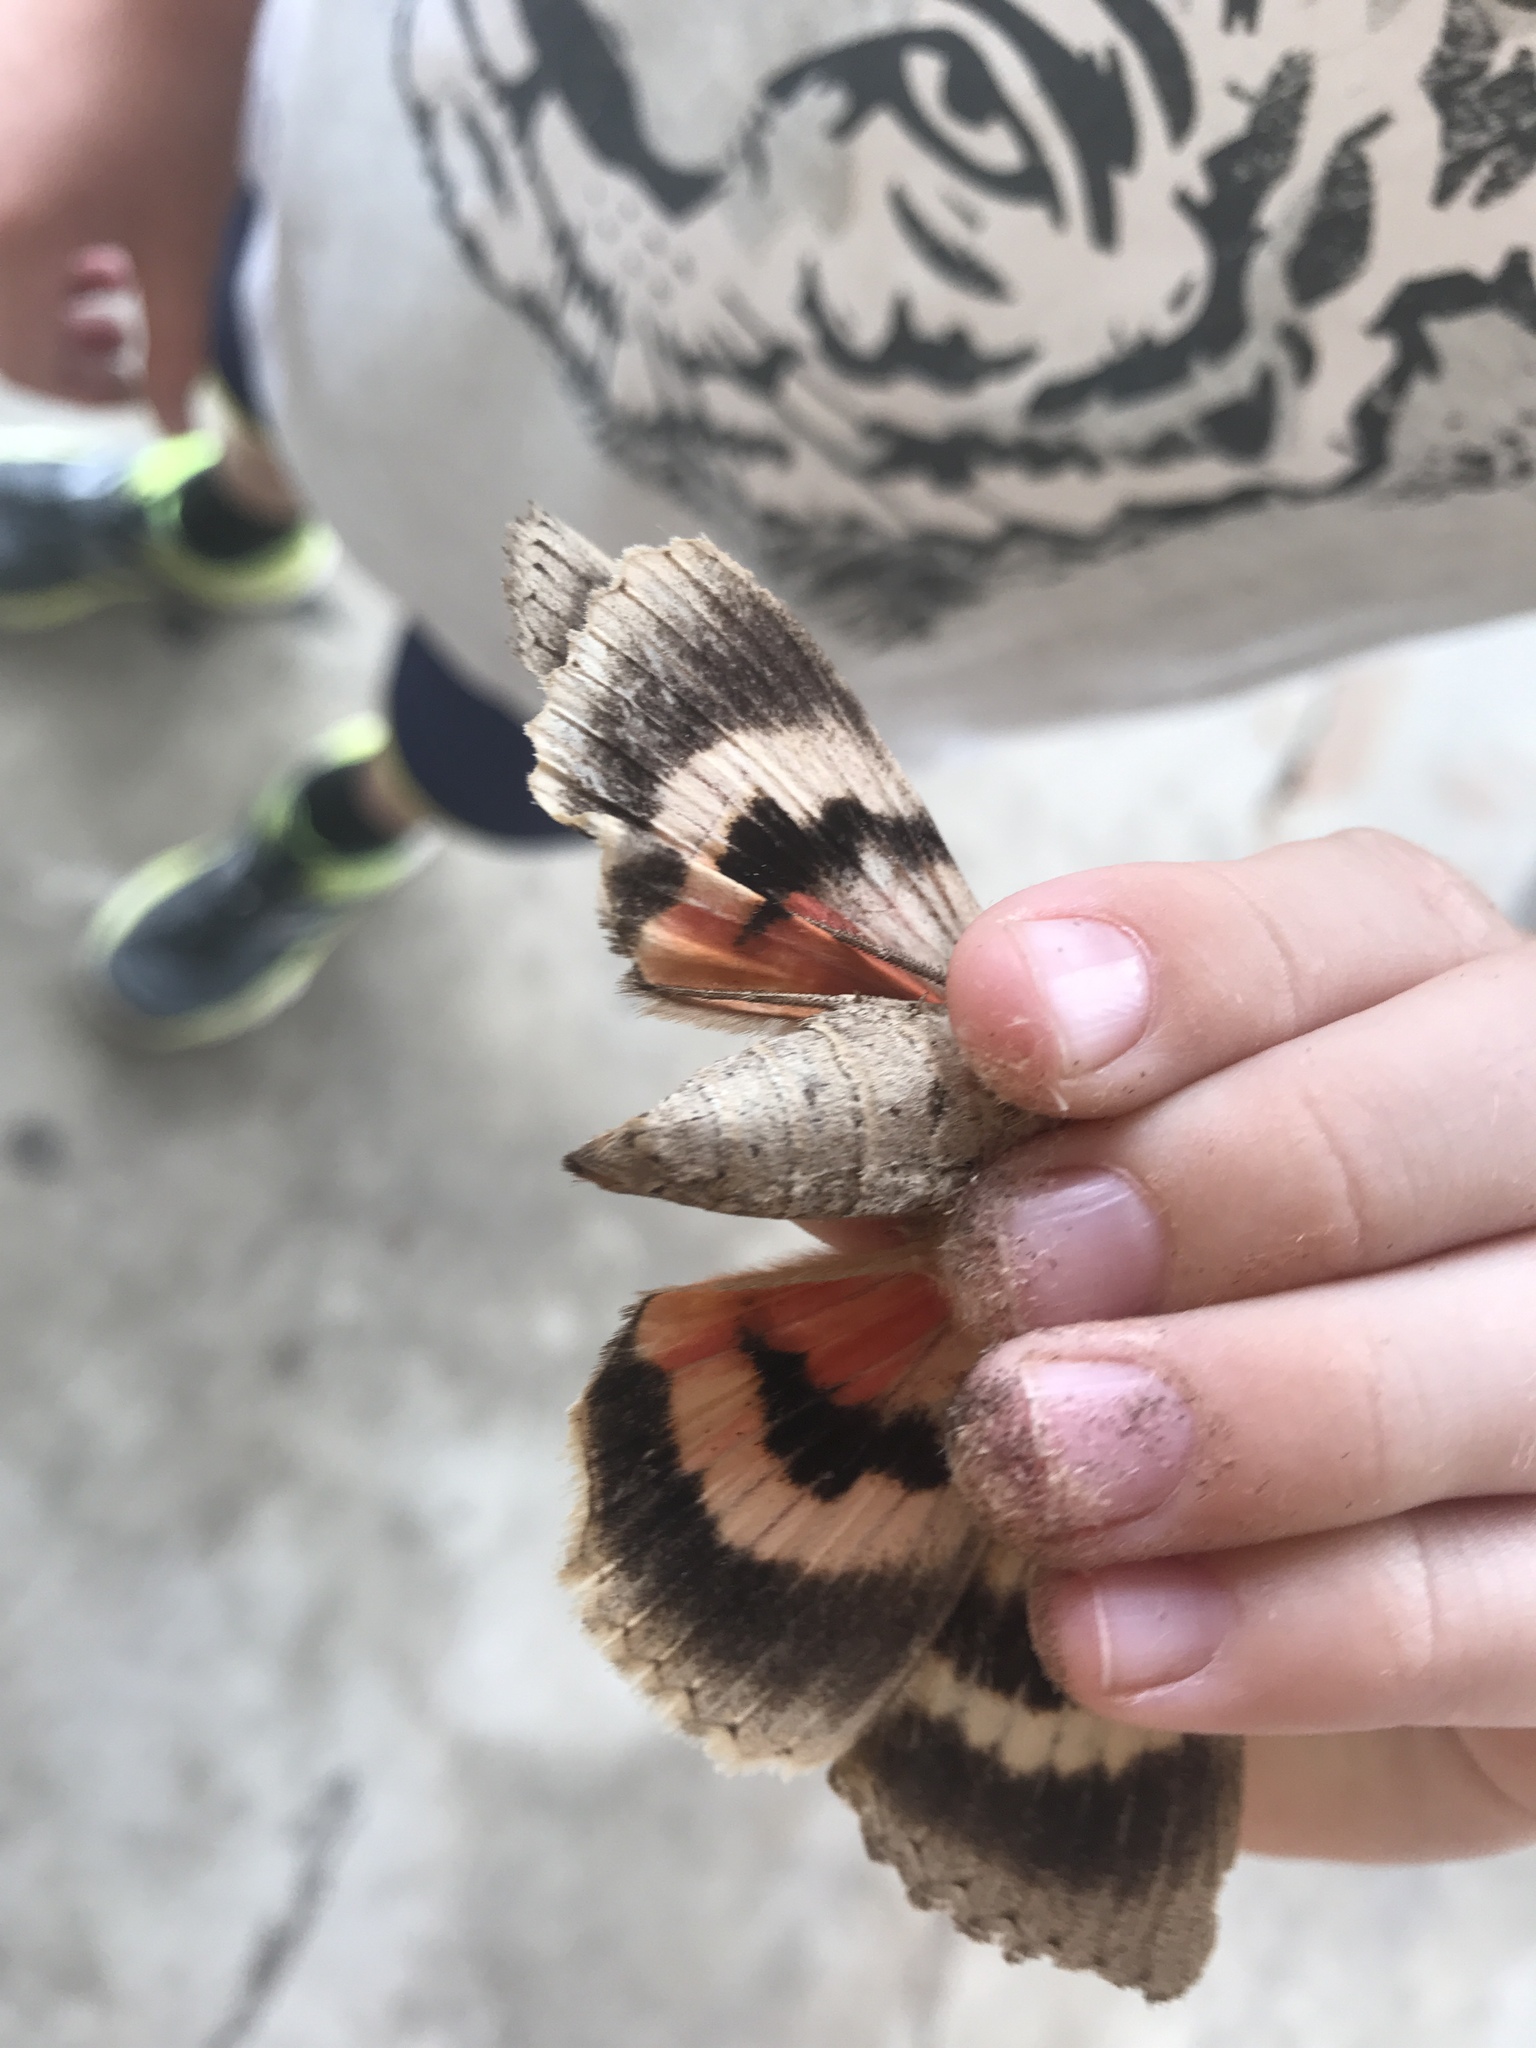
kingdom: Animalia
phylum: Arthropoda
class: Insecta
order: Lepidoptera
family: Erebidae
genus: Catocala
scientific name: Catocala amatrix
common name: Sweetheart underwing
